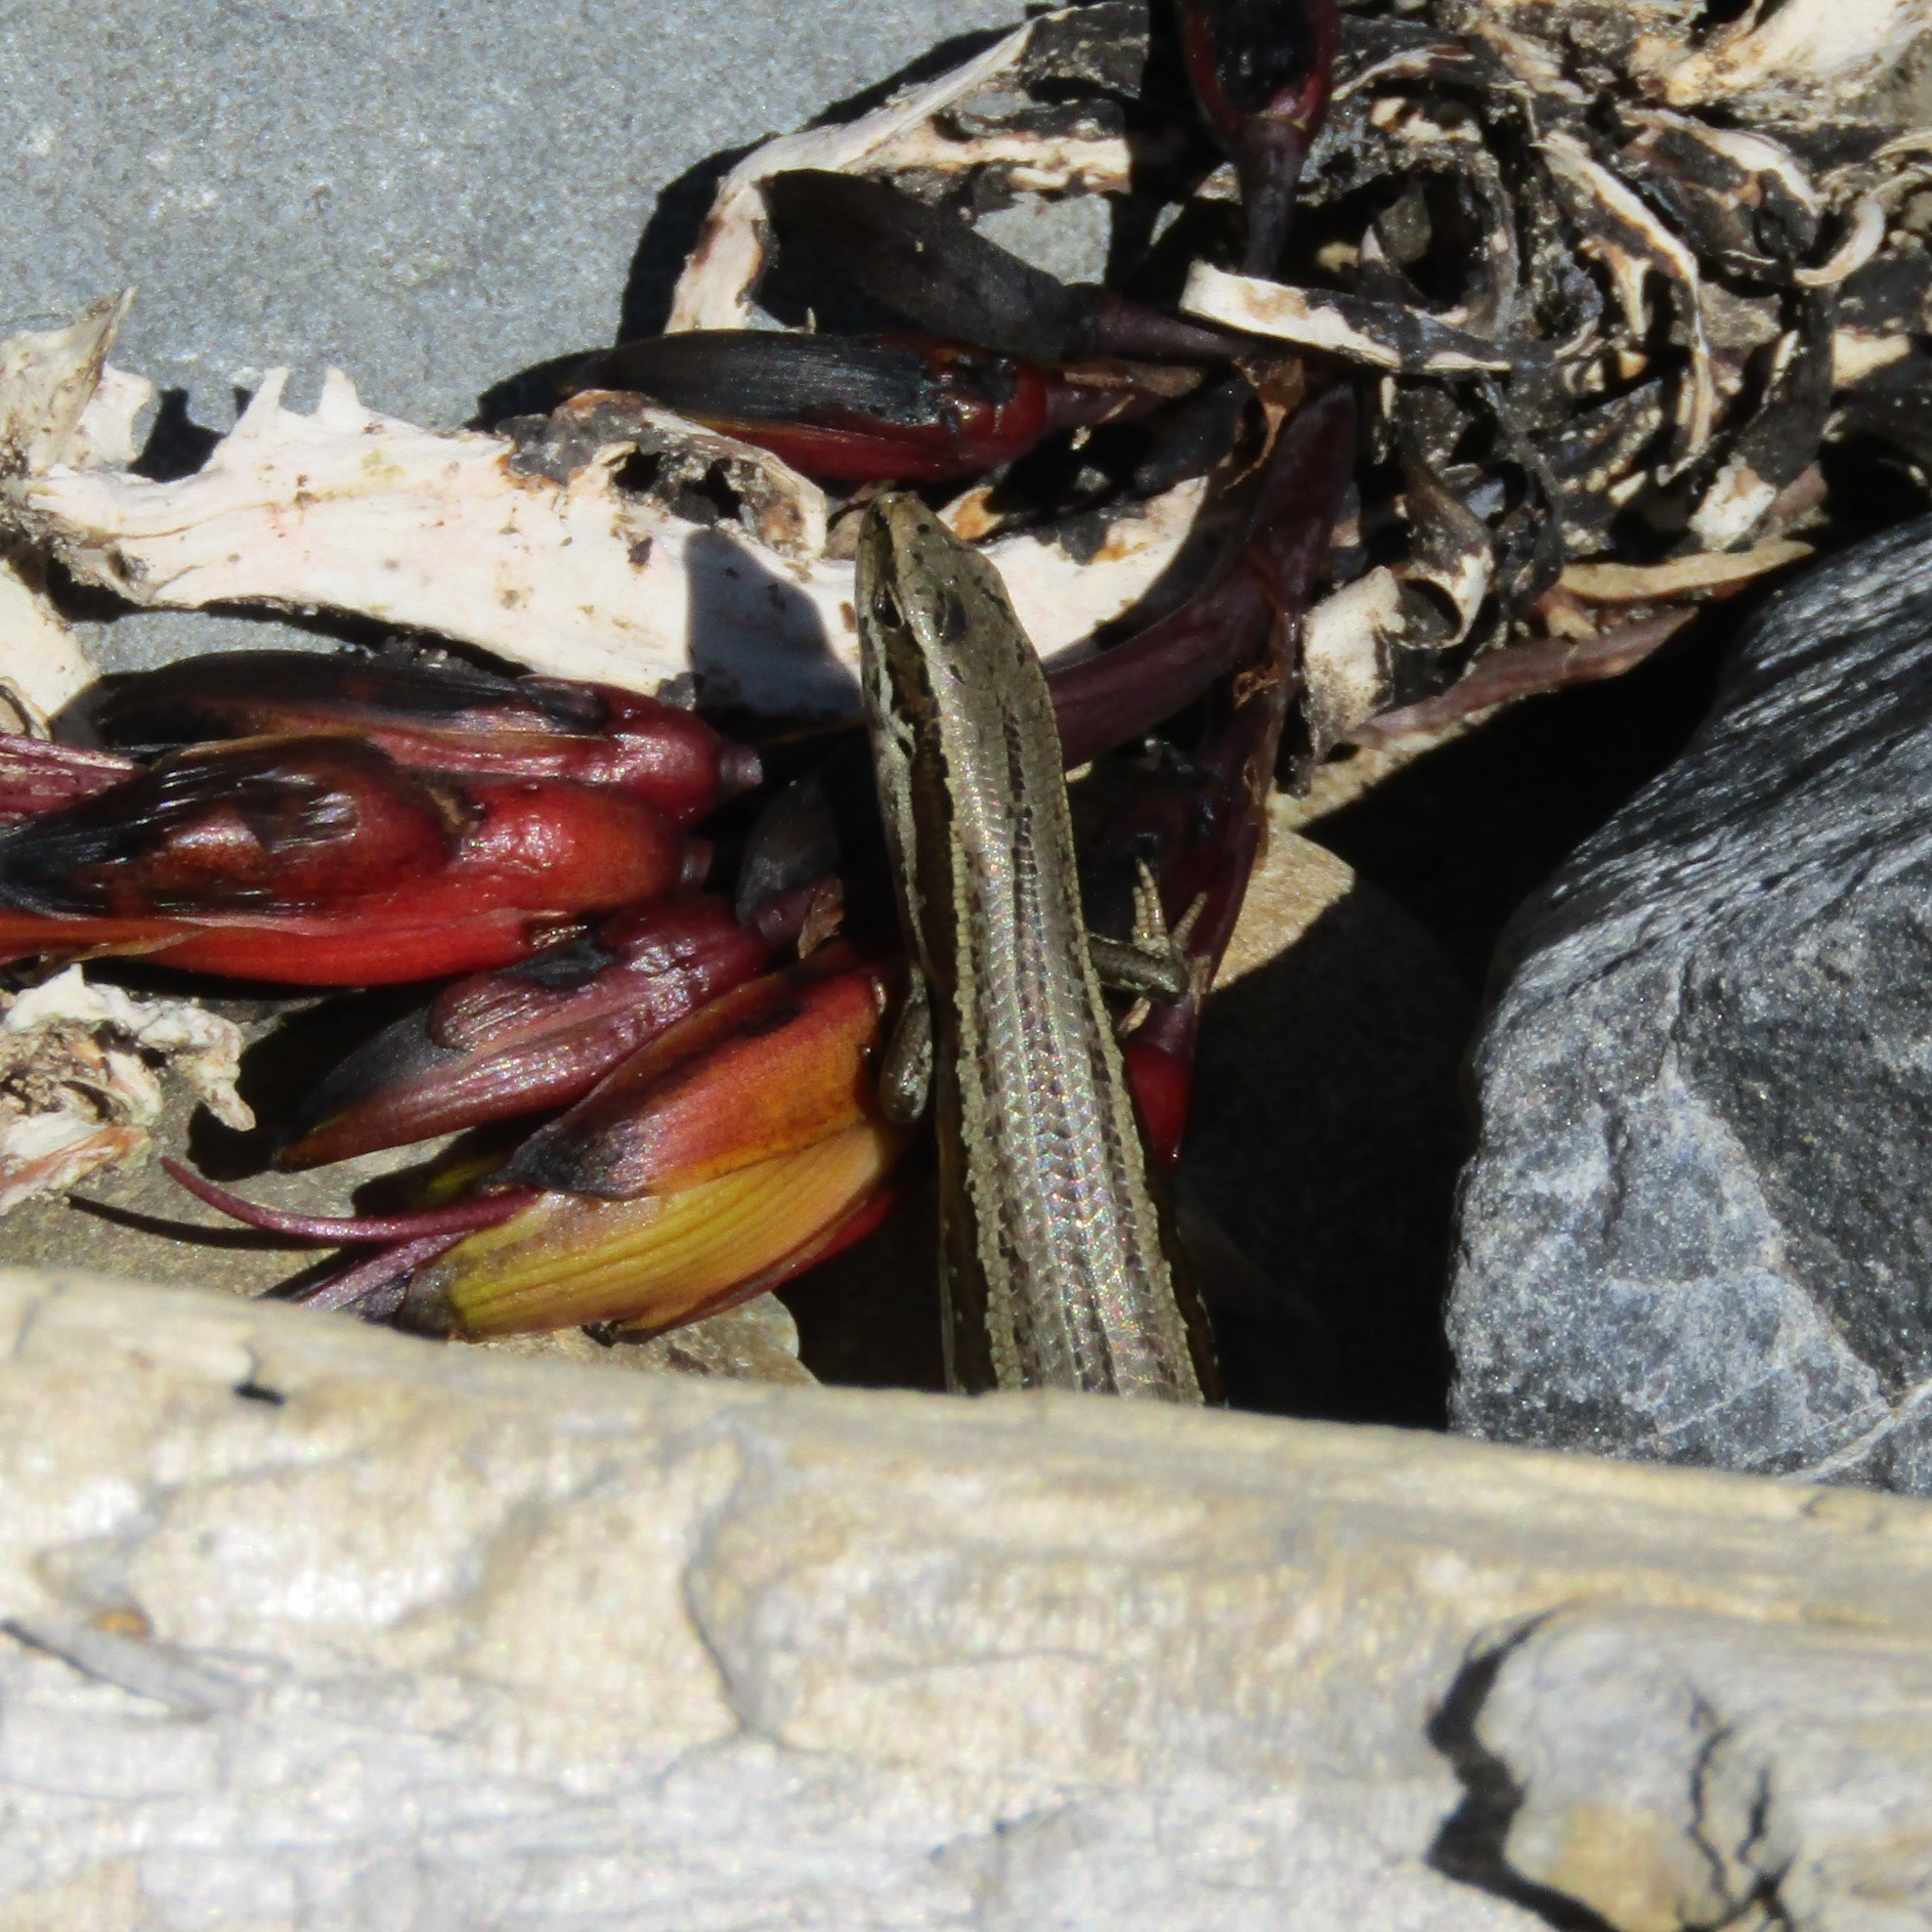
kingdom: Animalia
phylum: Chordata
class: Squamata
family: Scincidae
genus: Oligosoma
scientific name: Oligosoma polychroma
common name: Common new zealand skink
